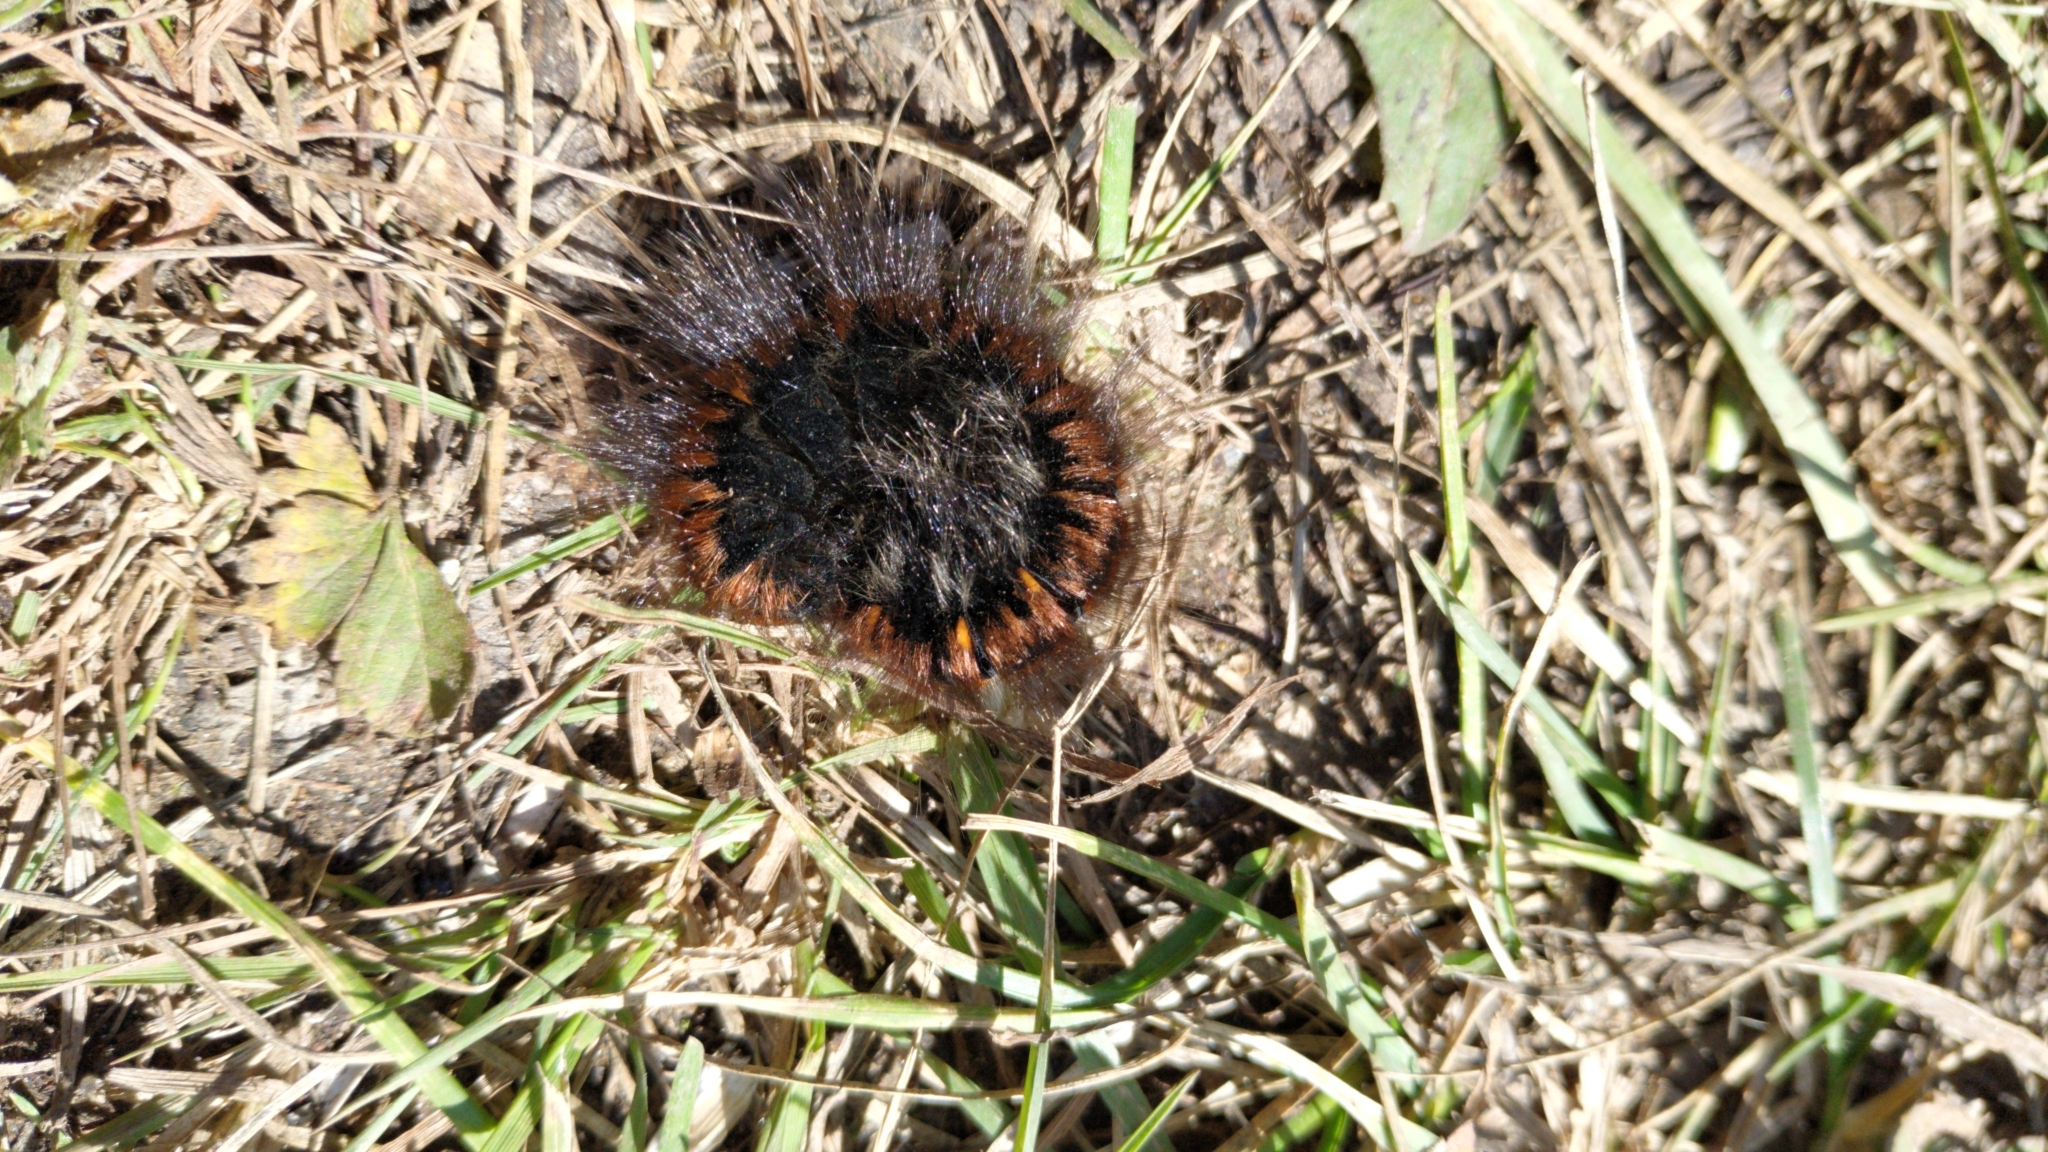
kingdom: Animalia
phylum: Arthropoda
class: Insecta
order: Lepidoptera
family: Lasiocampidae
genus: Macrothylacia
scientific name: Macrothylacia rubi
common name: Fox moth
